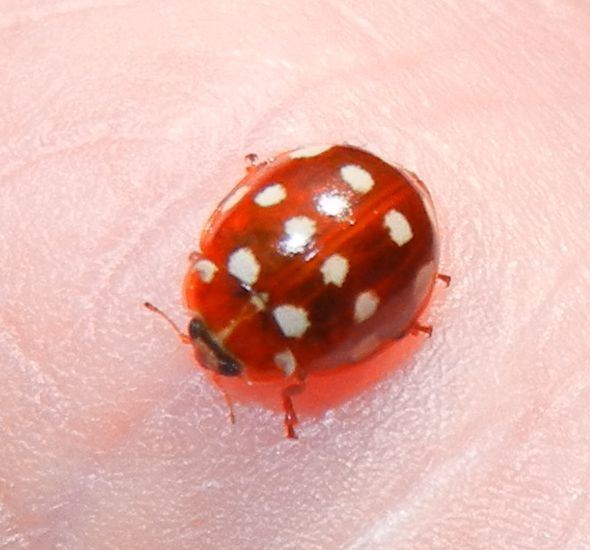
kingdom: Animalia
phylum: Arthropoda
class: Insecta
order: Coleoptera
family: Coccinellidae
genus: Calvia
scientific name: Calvia quatuordecimguttata
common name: Cream-spot ladybird
